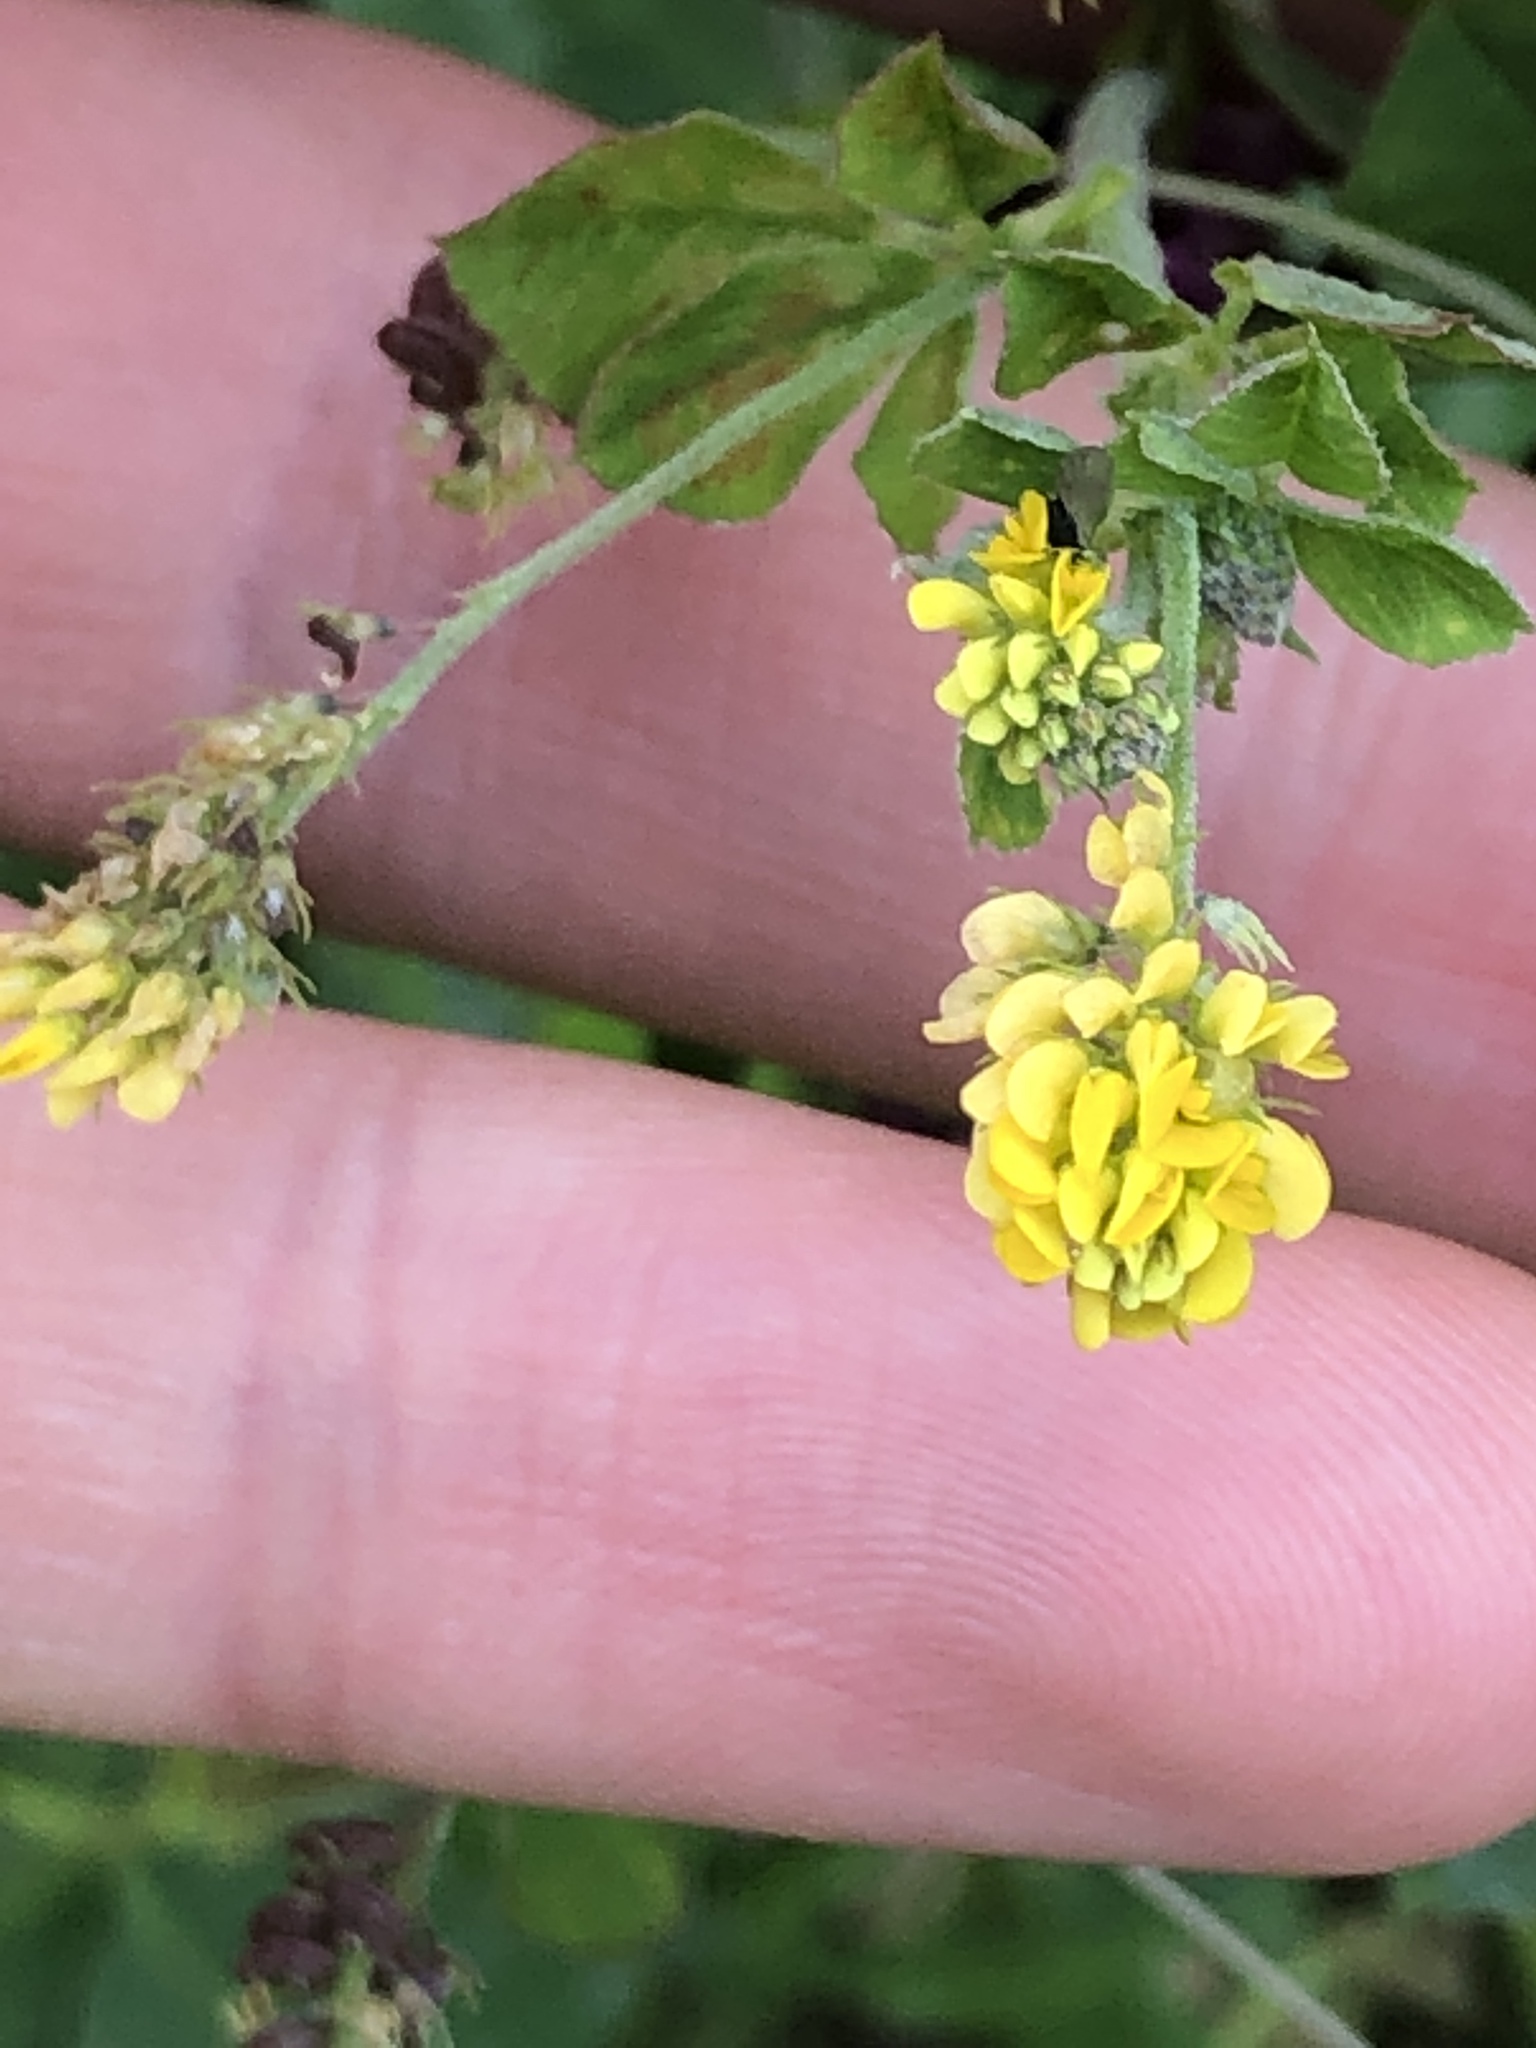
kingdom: Plantae
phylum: Tracheophyta
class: Magnoliopsida
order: Fabales
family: Fabaceae
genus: Medicago
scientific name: Medicago lupulina
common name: Black medick
